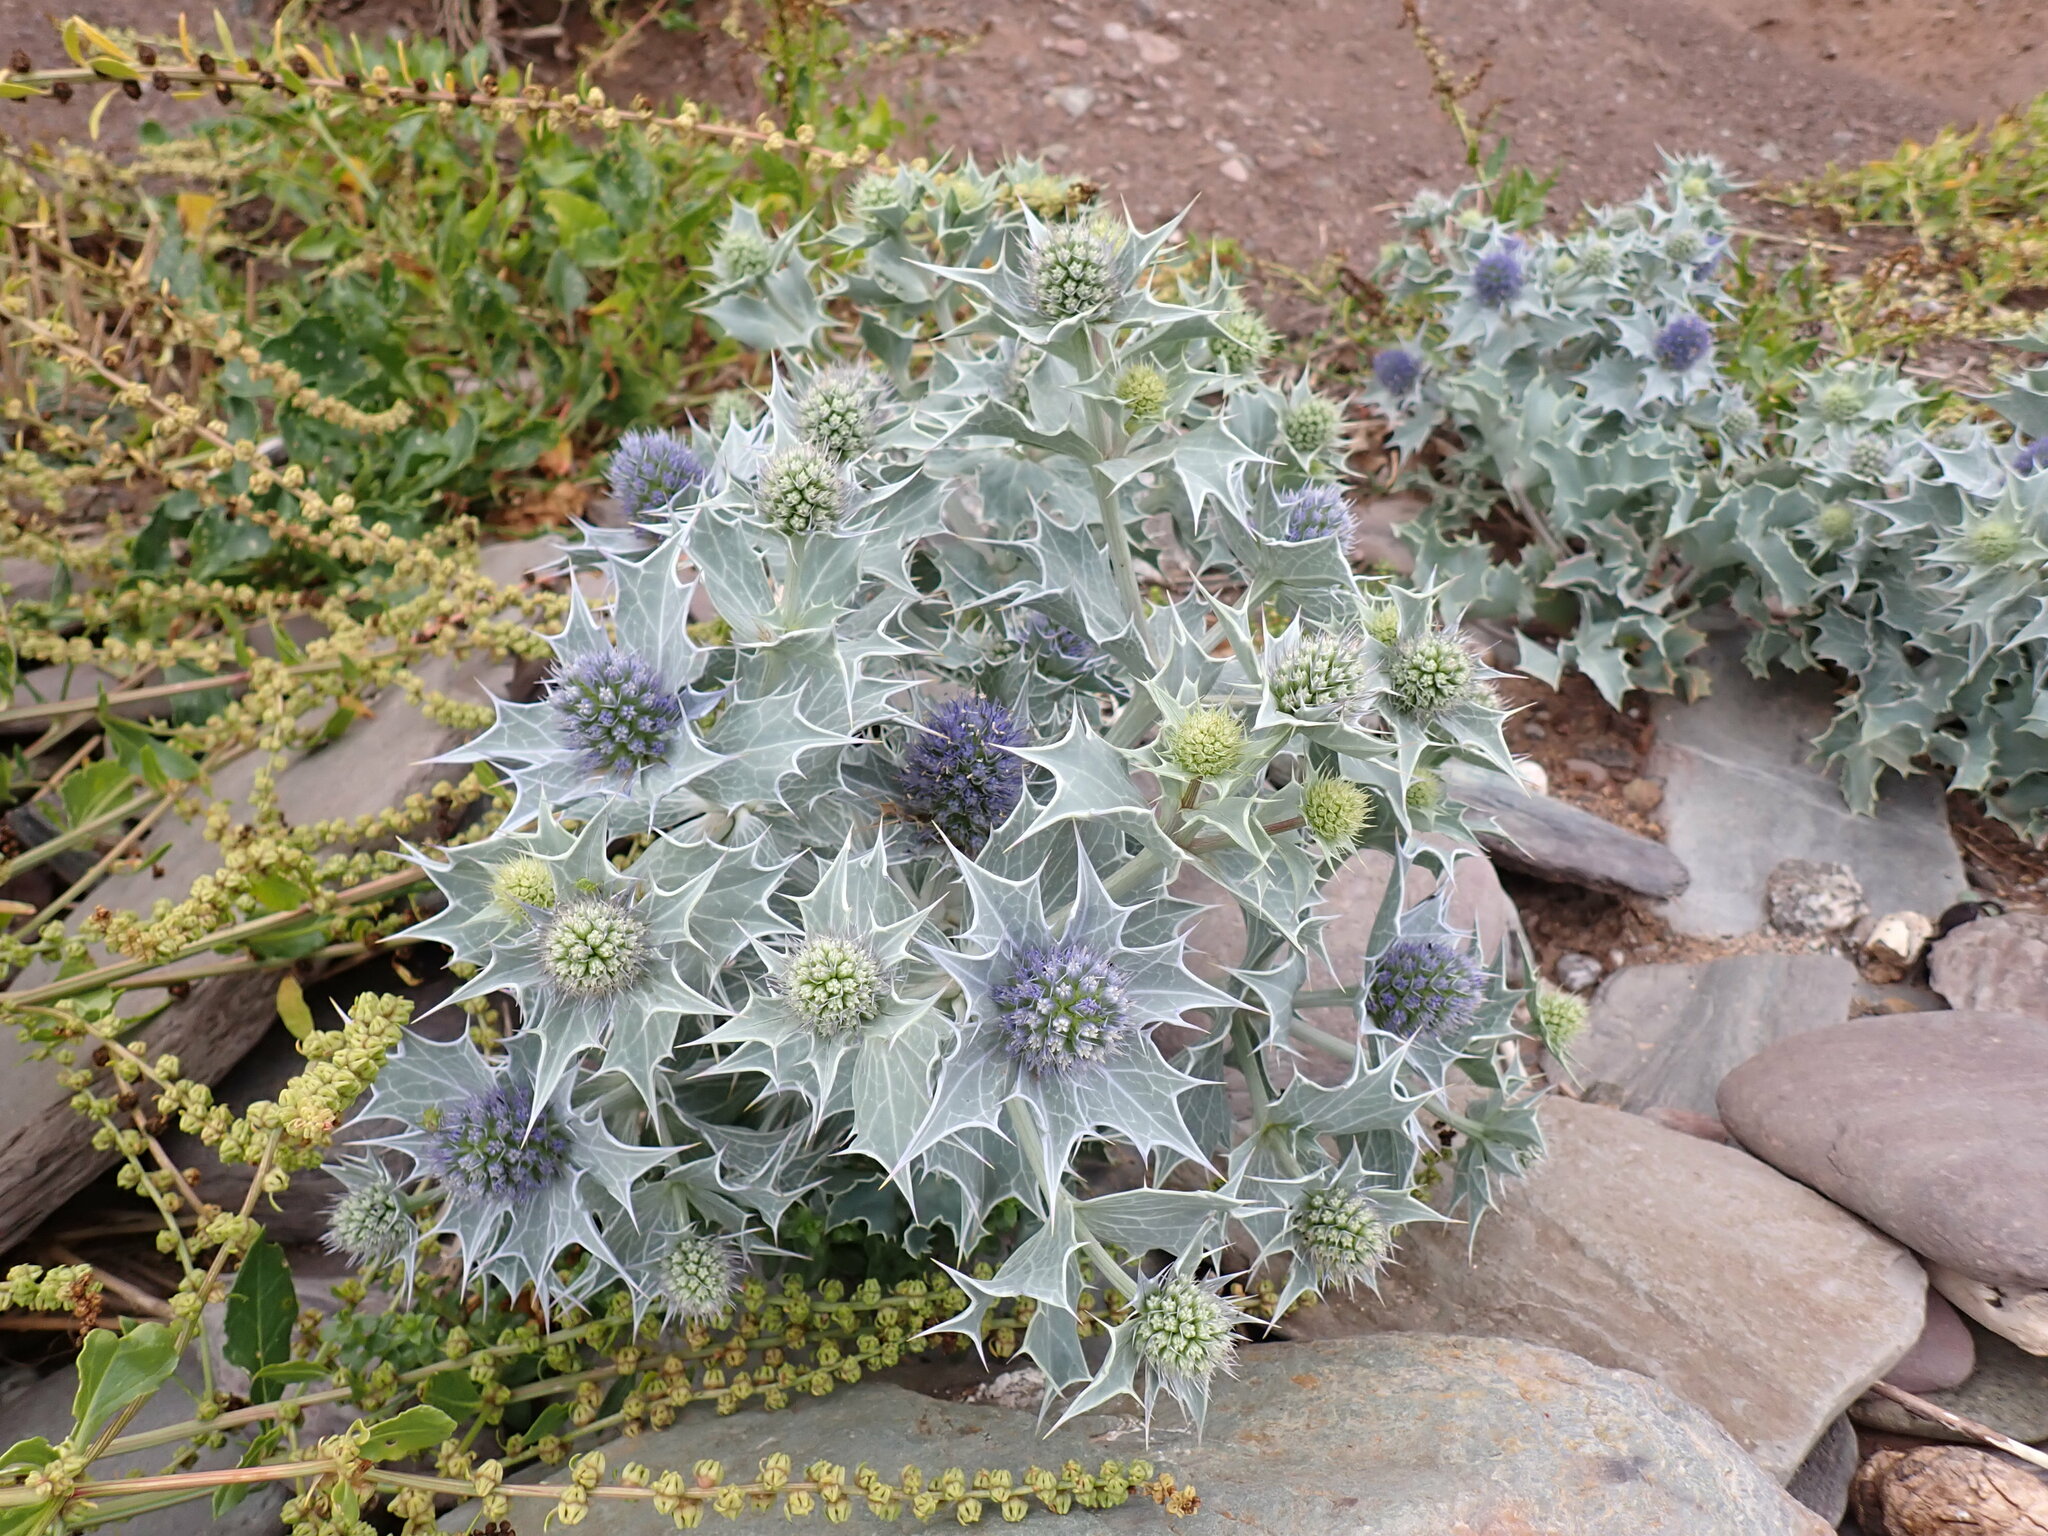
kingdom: Plantae
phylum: Tracheophyta
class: Magnoliopsida
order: Apiales
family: Apiaceae
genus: Eryngium
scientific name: Eryngium maritimum
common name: Sea-holly
